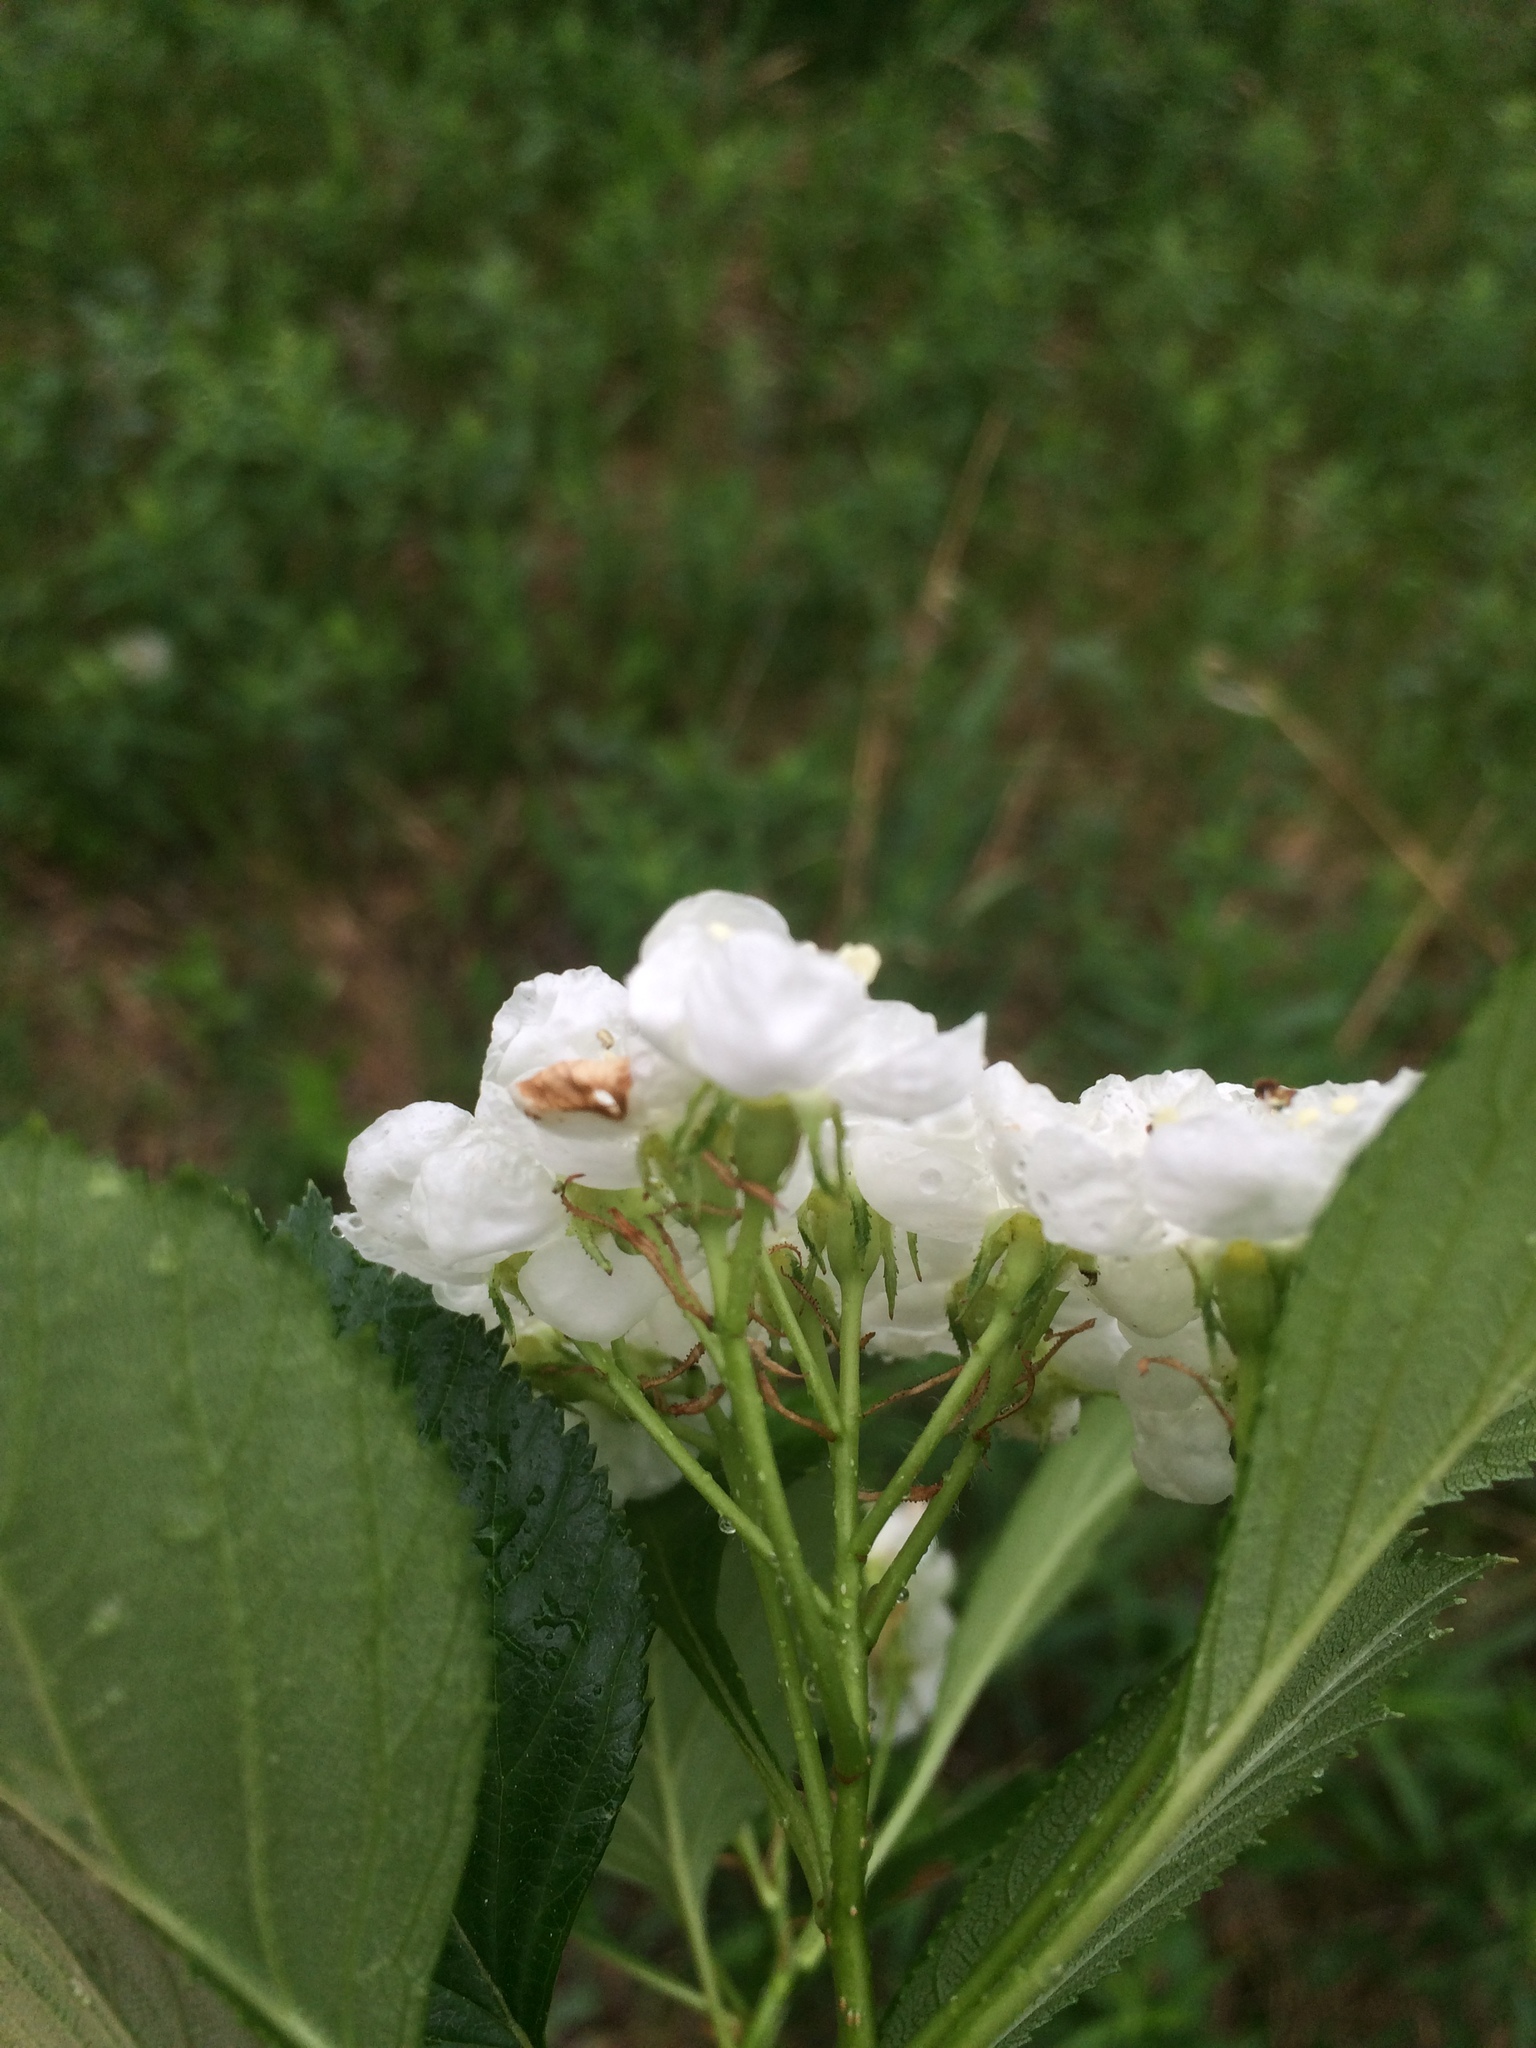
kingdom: Plantae
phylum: Tracheophyta
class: Magnoliopsida
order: Rosales
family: Rosaceae
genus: Crataegus
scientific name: Crataegus macracantha
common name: Large-thorn hawthorn
